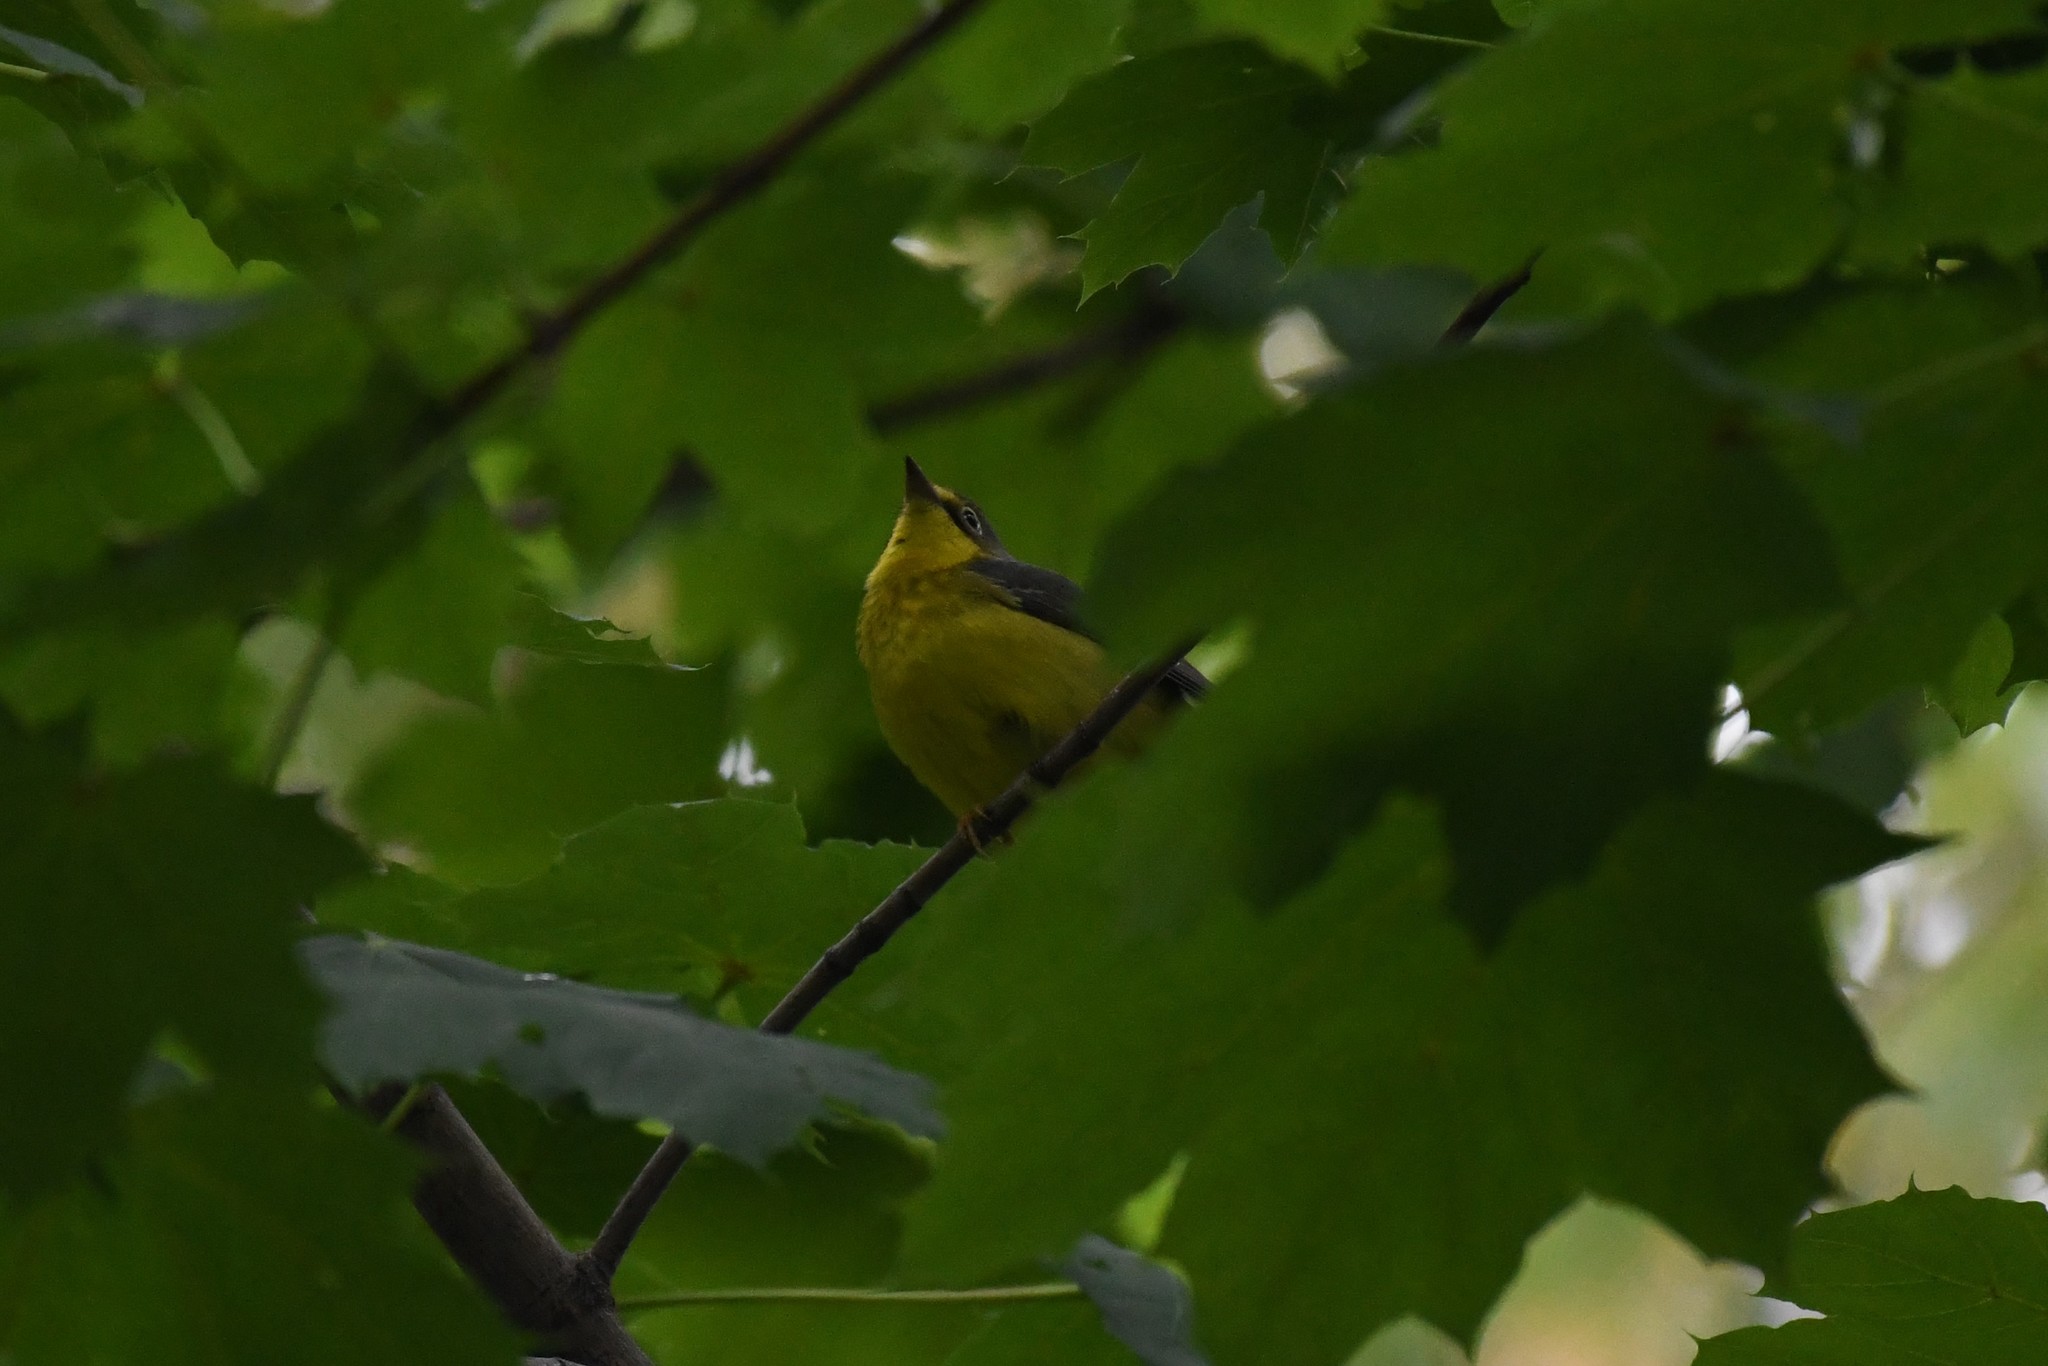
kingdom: Animalia
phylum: Chordata
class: Aves
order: Passeriformes
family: Parulidae
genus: Cardellina
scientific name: Cardellina canadensis
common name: Canada warbler
